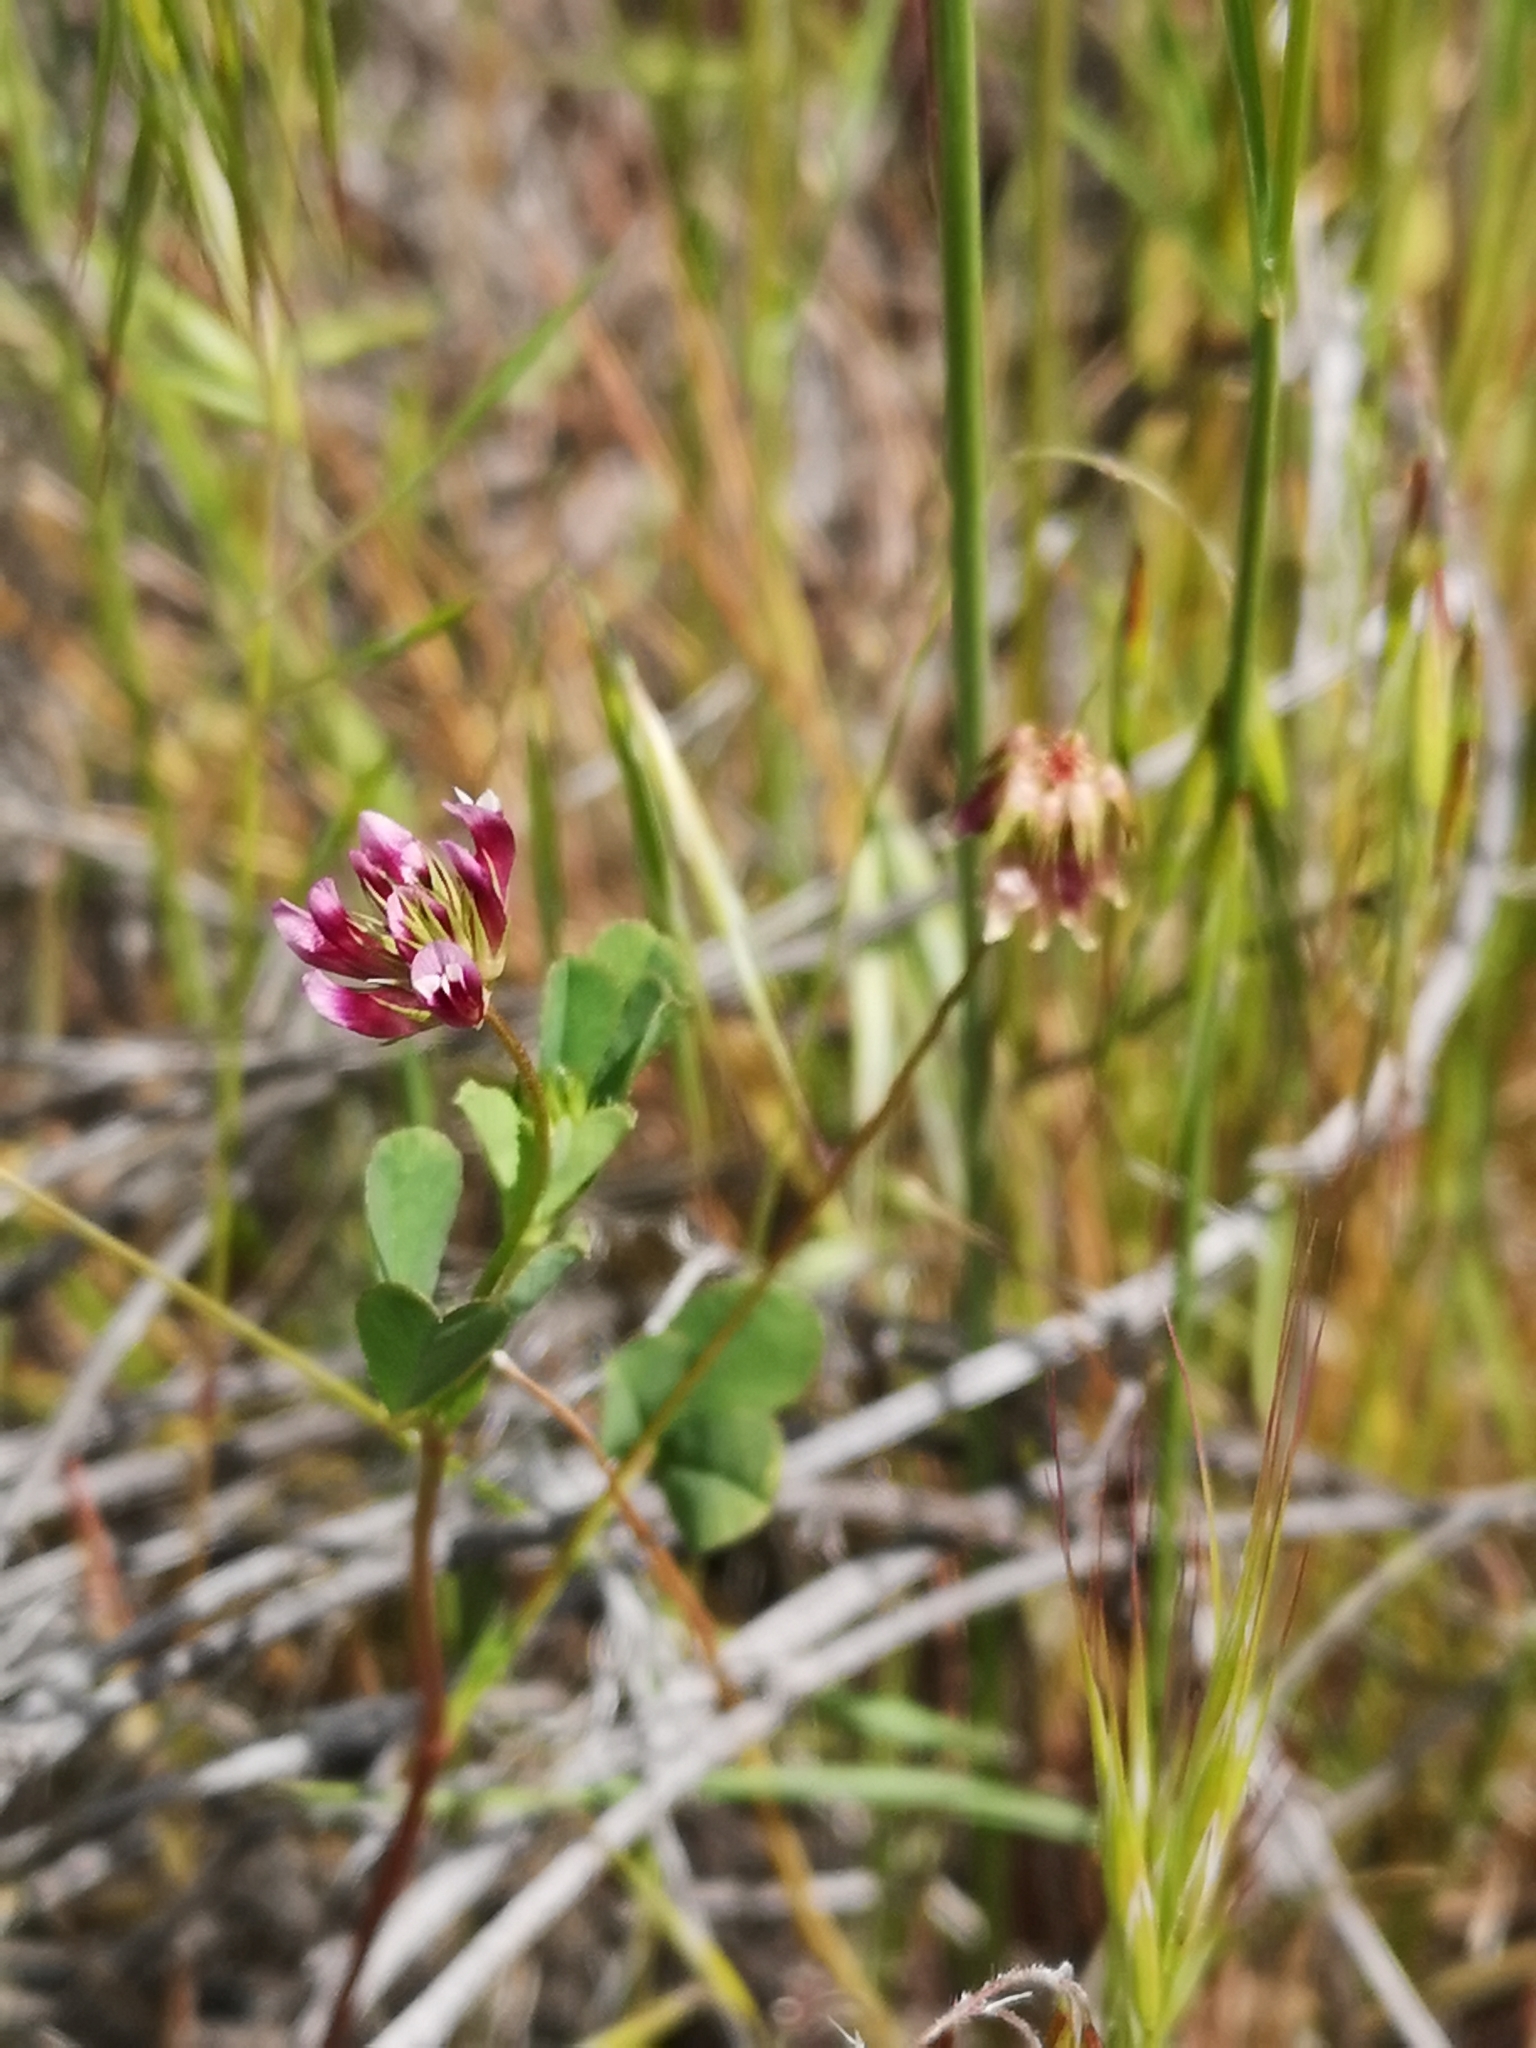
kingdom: Plantae
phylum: Tracheophyta
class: Magnoliopsida
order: Fabales
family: Fabaceae
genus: Trifolium
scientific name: Trifolium gracilentum
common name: Slender clover
